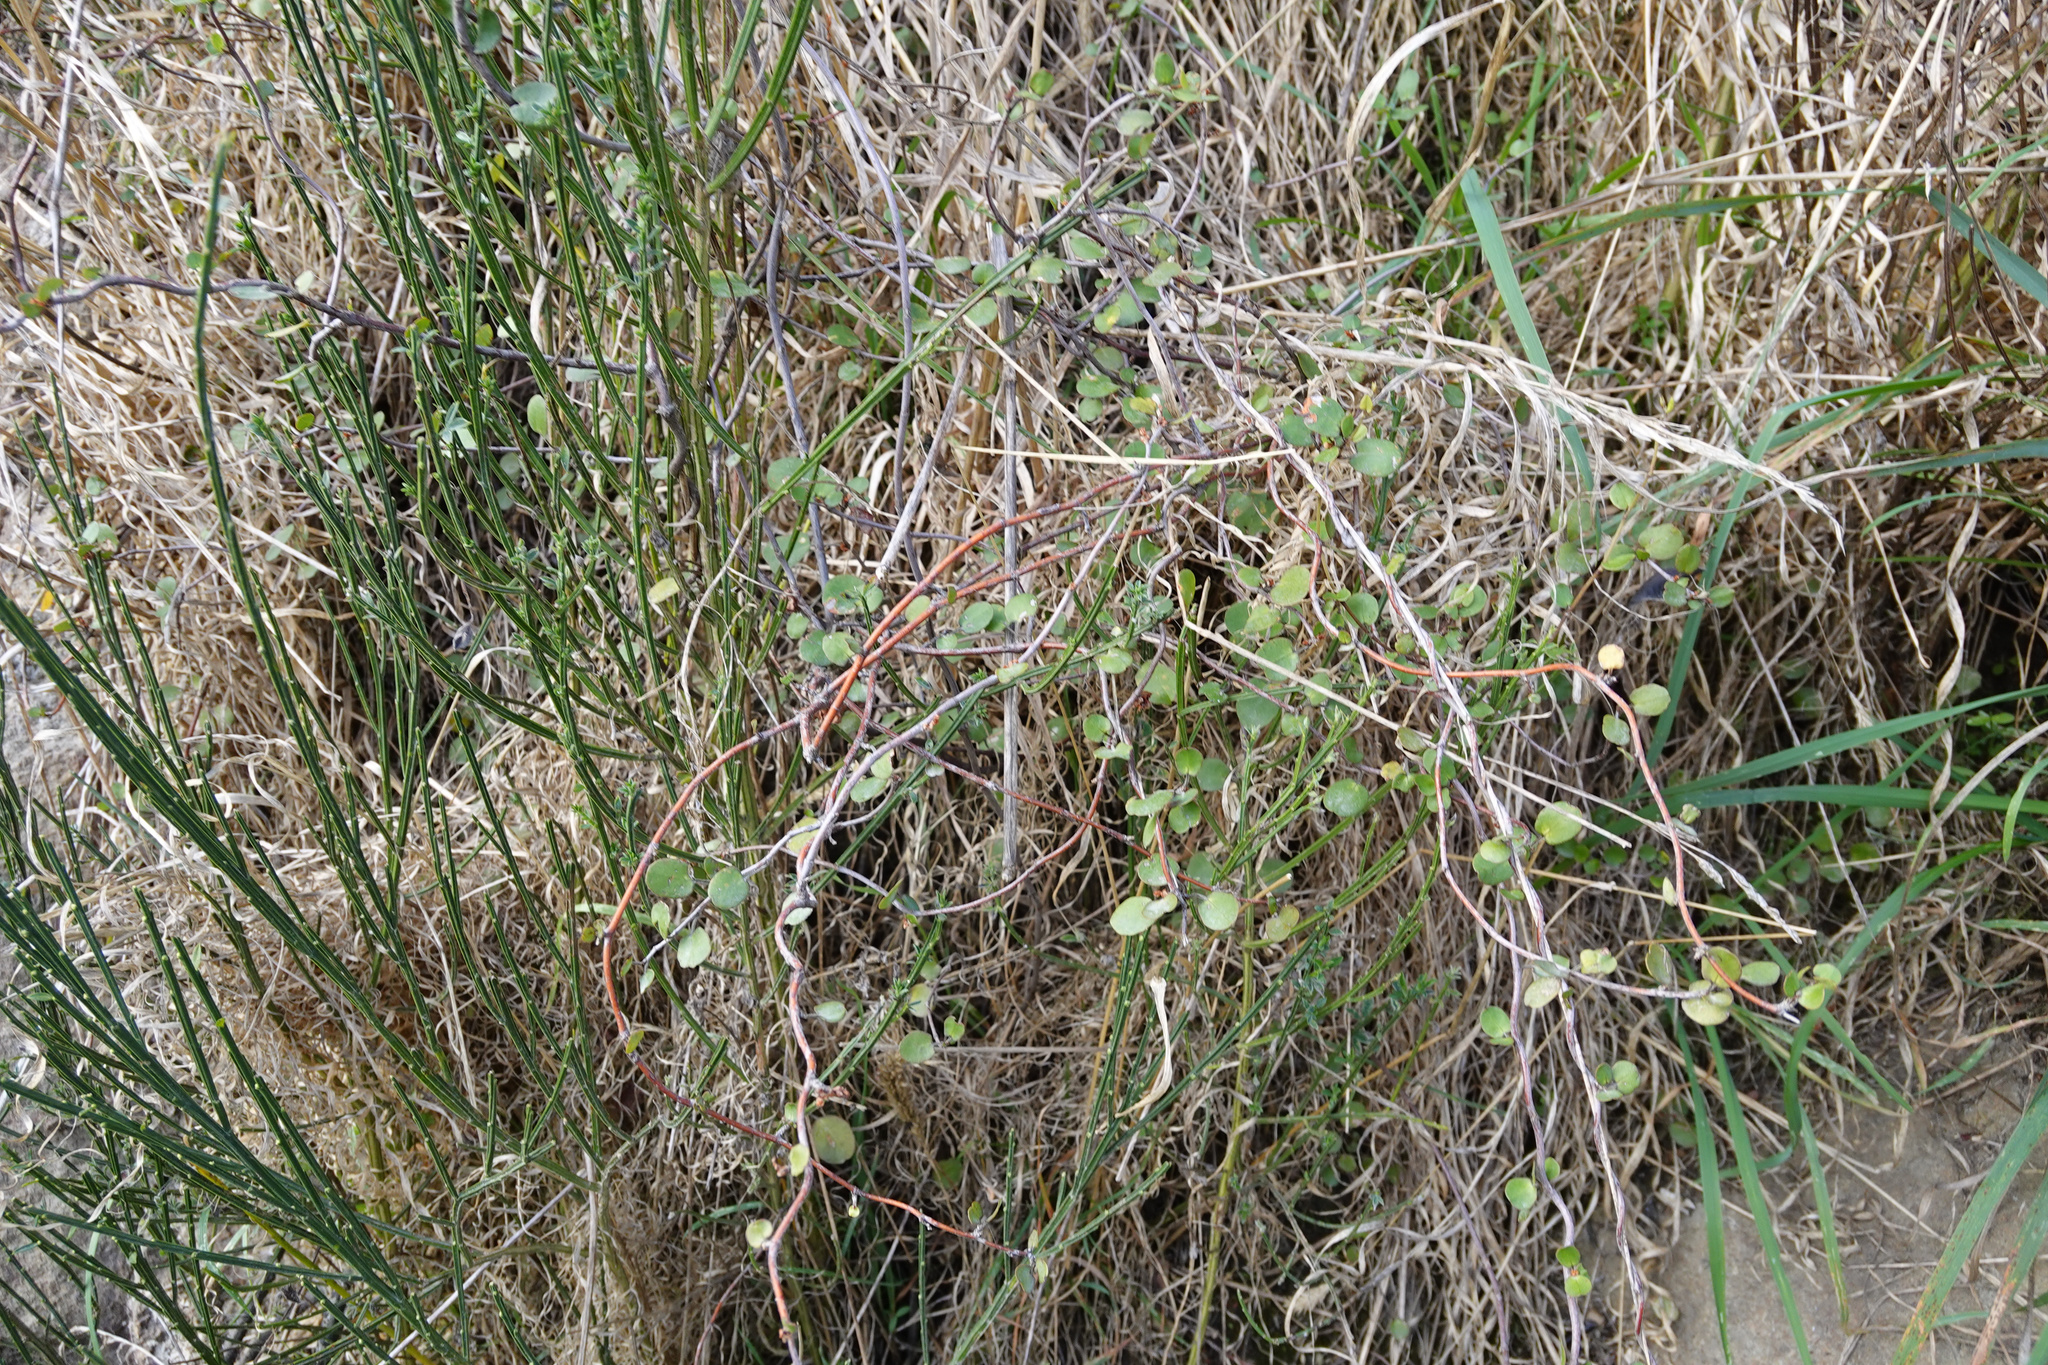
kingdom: Plantae
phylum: Tracheophyta
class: Magnoliopsida
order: Caryophyllales
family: Polygonaceae
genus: Muehlenbeckia
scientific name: Muehlenbeckia complexa
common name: Wireplant
